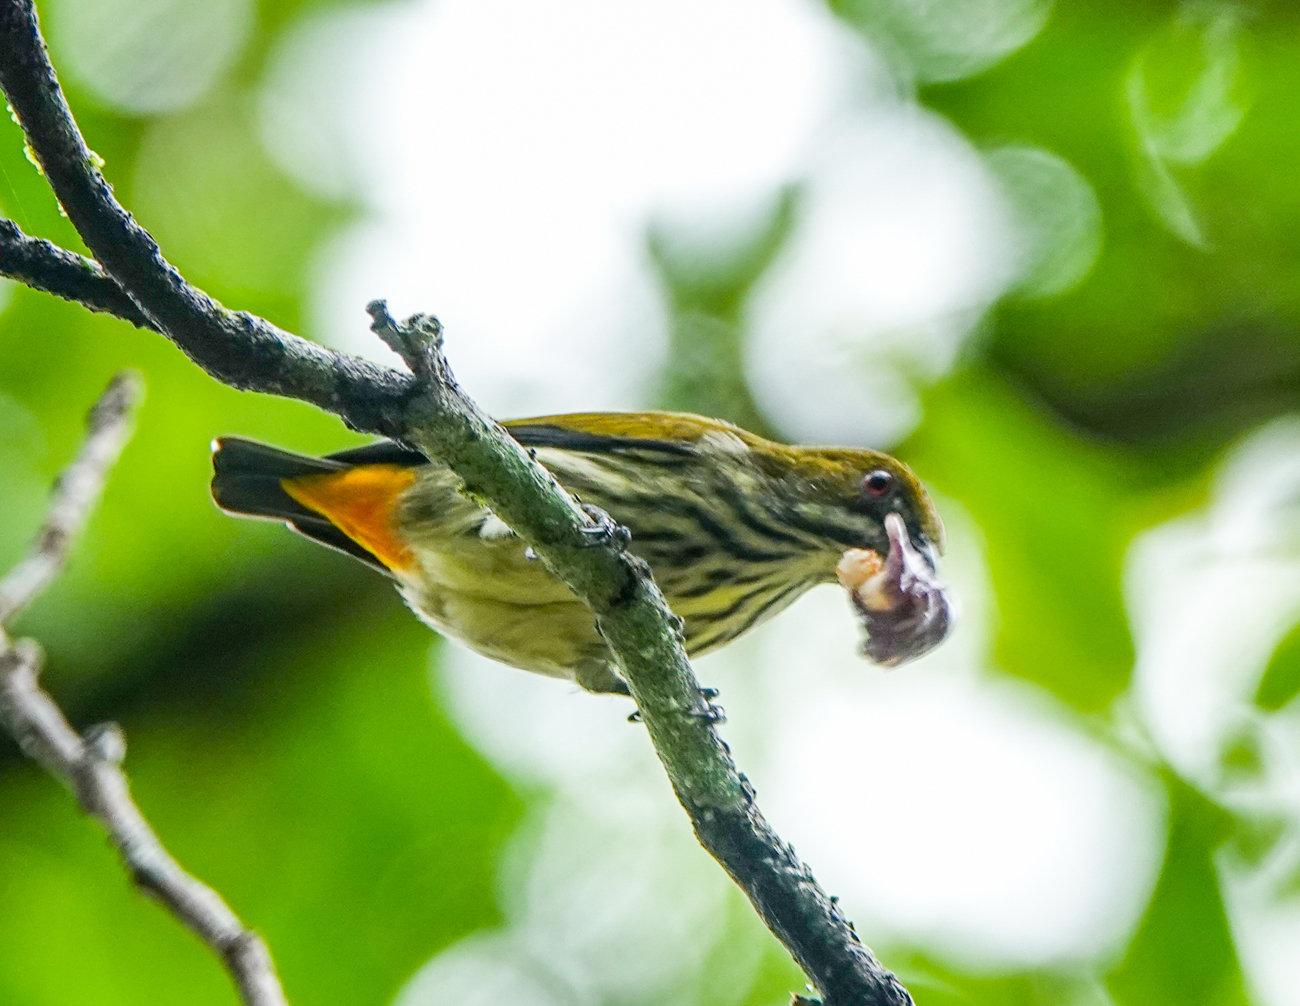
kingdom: Animalia
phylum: Chordata
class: Aves
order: Passeriformes
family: Dicaeidae
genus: Dicaeum
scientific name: Dicaeum chrysorrheum
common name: Yellow-vented flowerpecker
